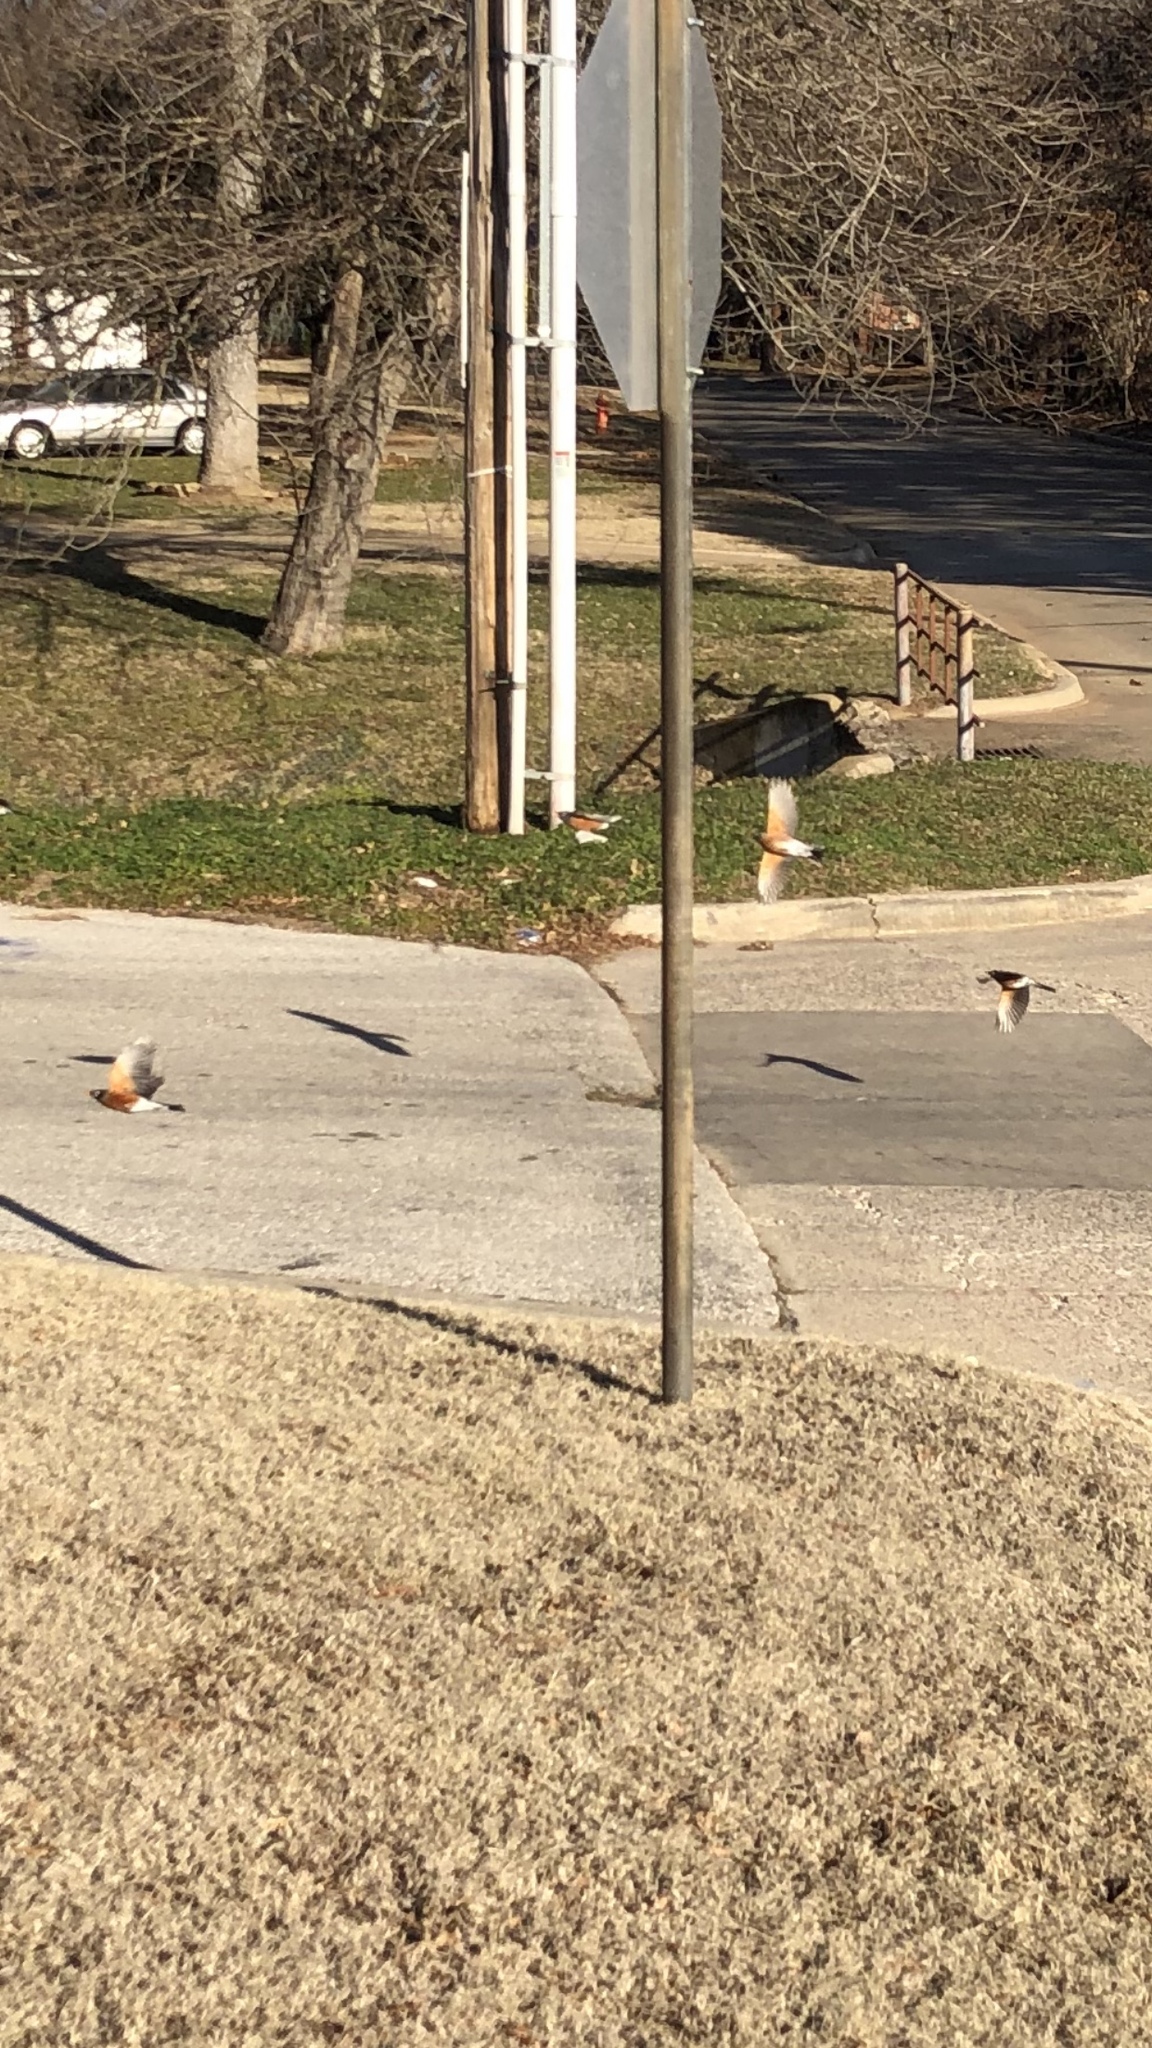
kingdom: Animalia
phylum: Chordata
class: Aves
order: Passeriformes
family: Turdidae
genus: Turdus
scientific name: Turdus migratorius
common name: American robin
